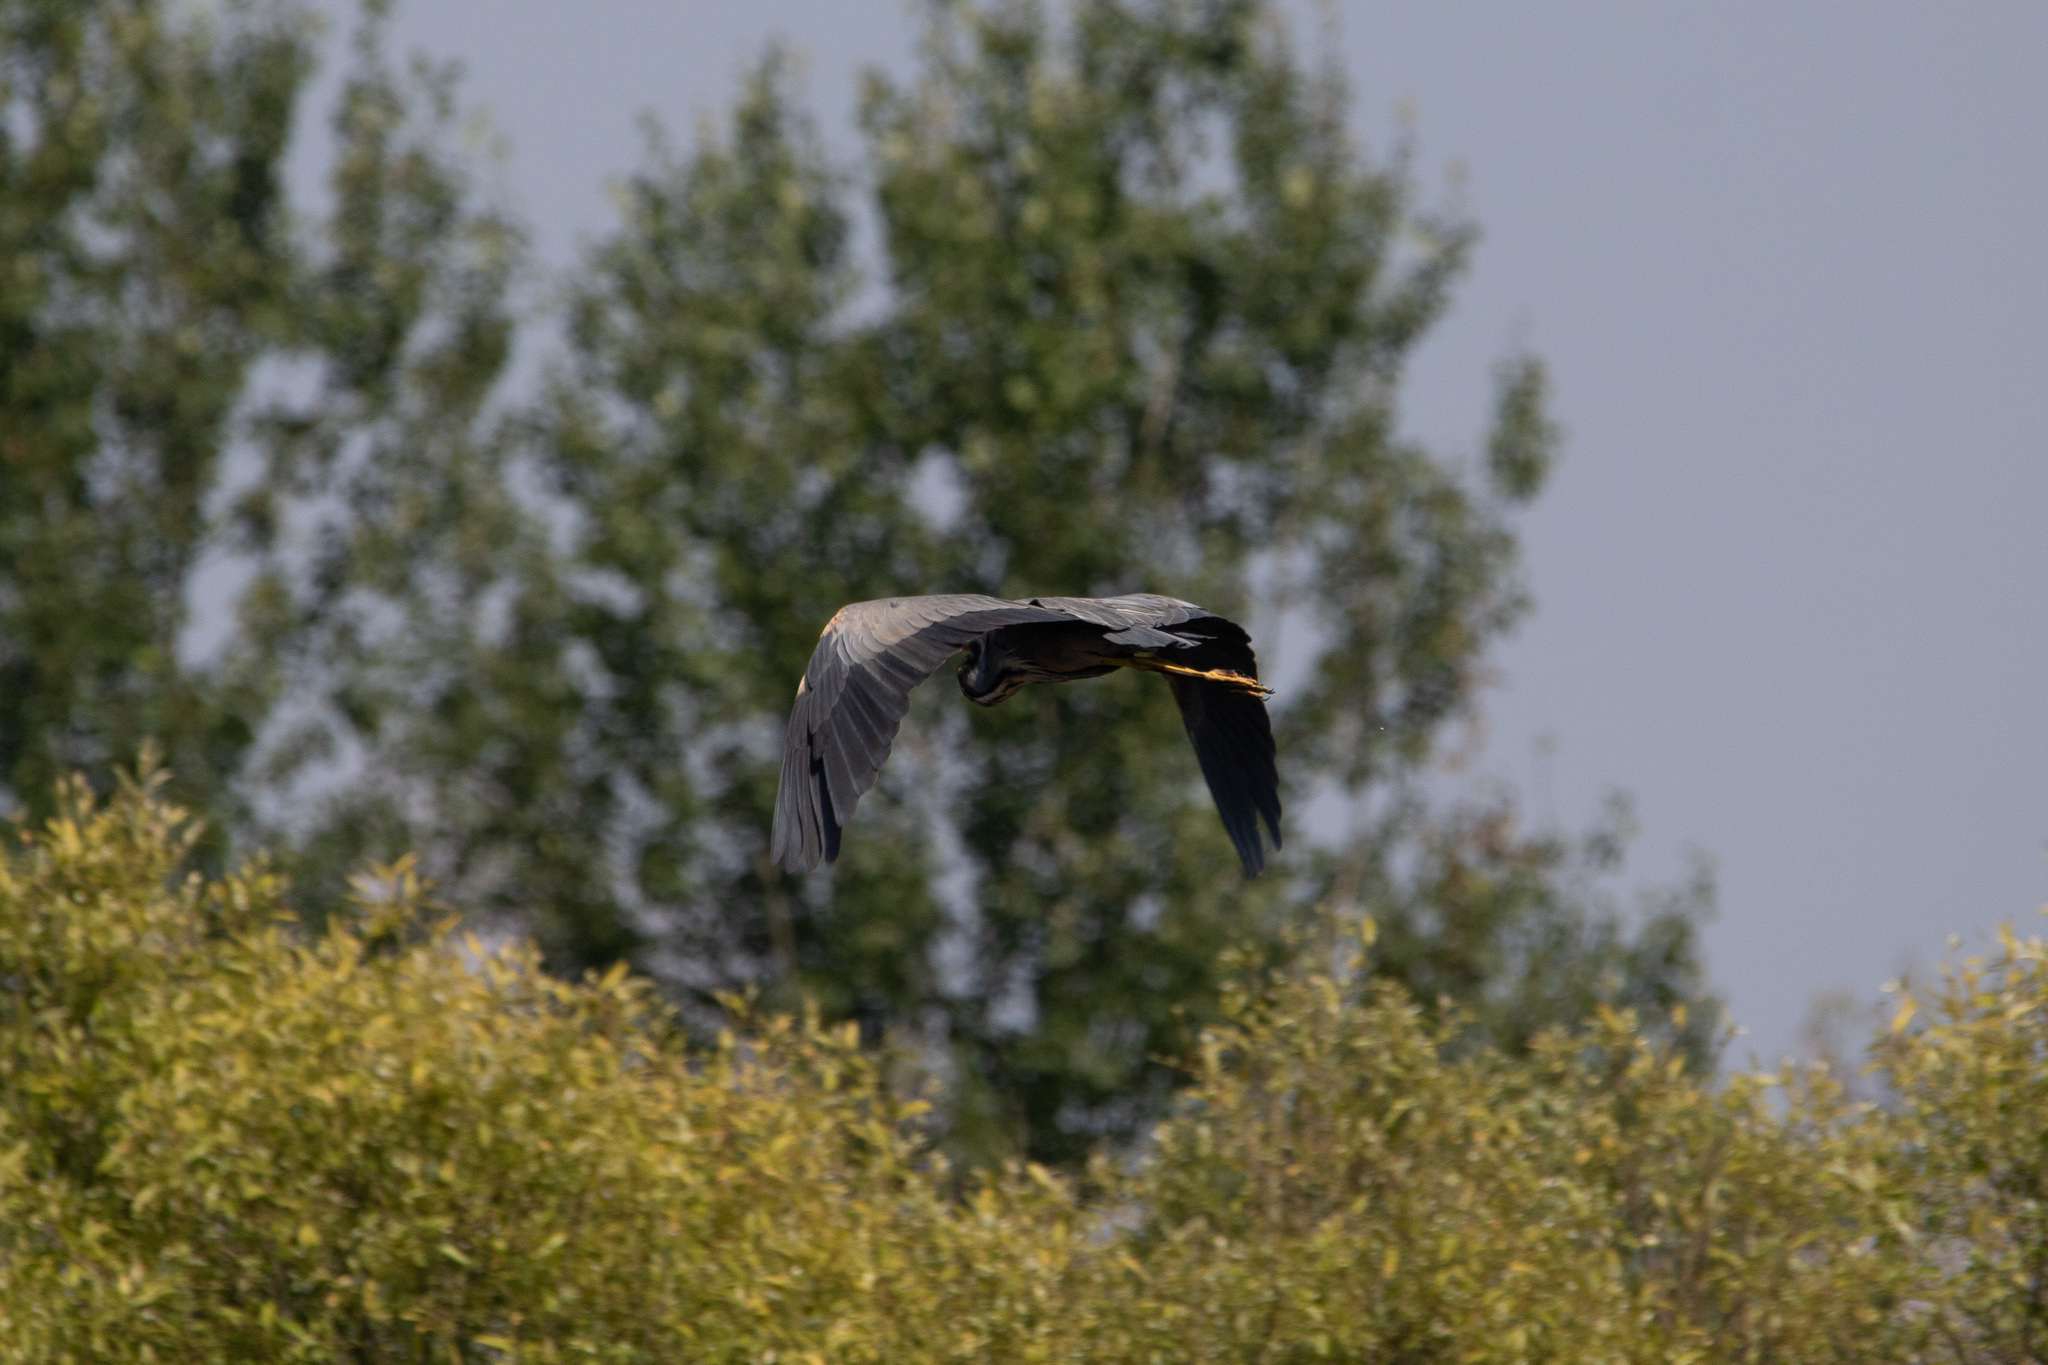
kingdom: Animalia
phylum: Chordata
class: Aves
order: Pelecaniformes
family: Ardeidae
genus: Ardea
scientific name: Ardea purpurea
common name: Purple heron
